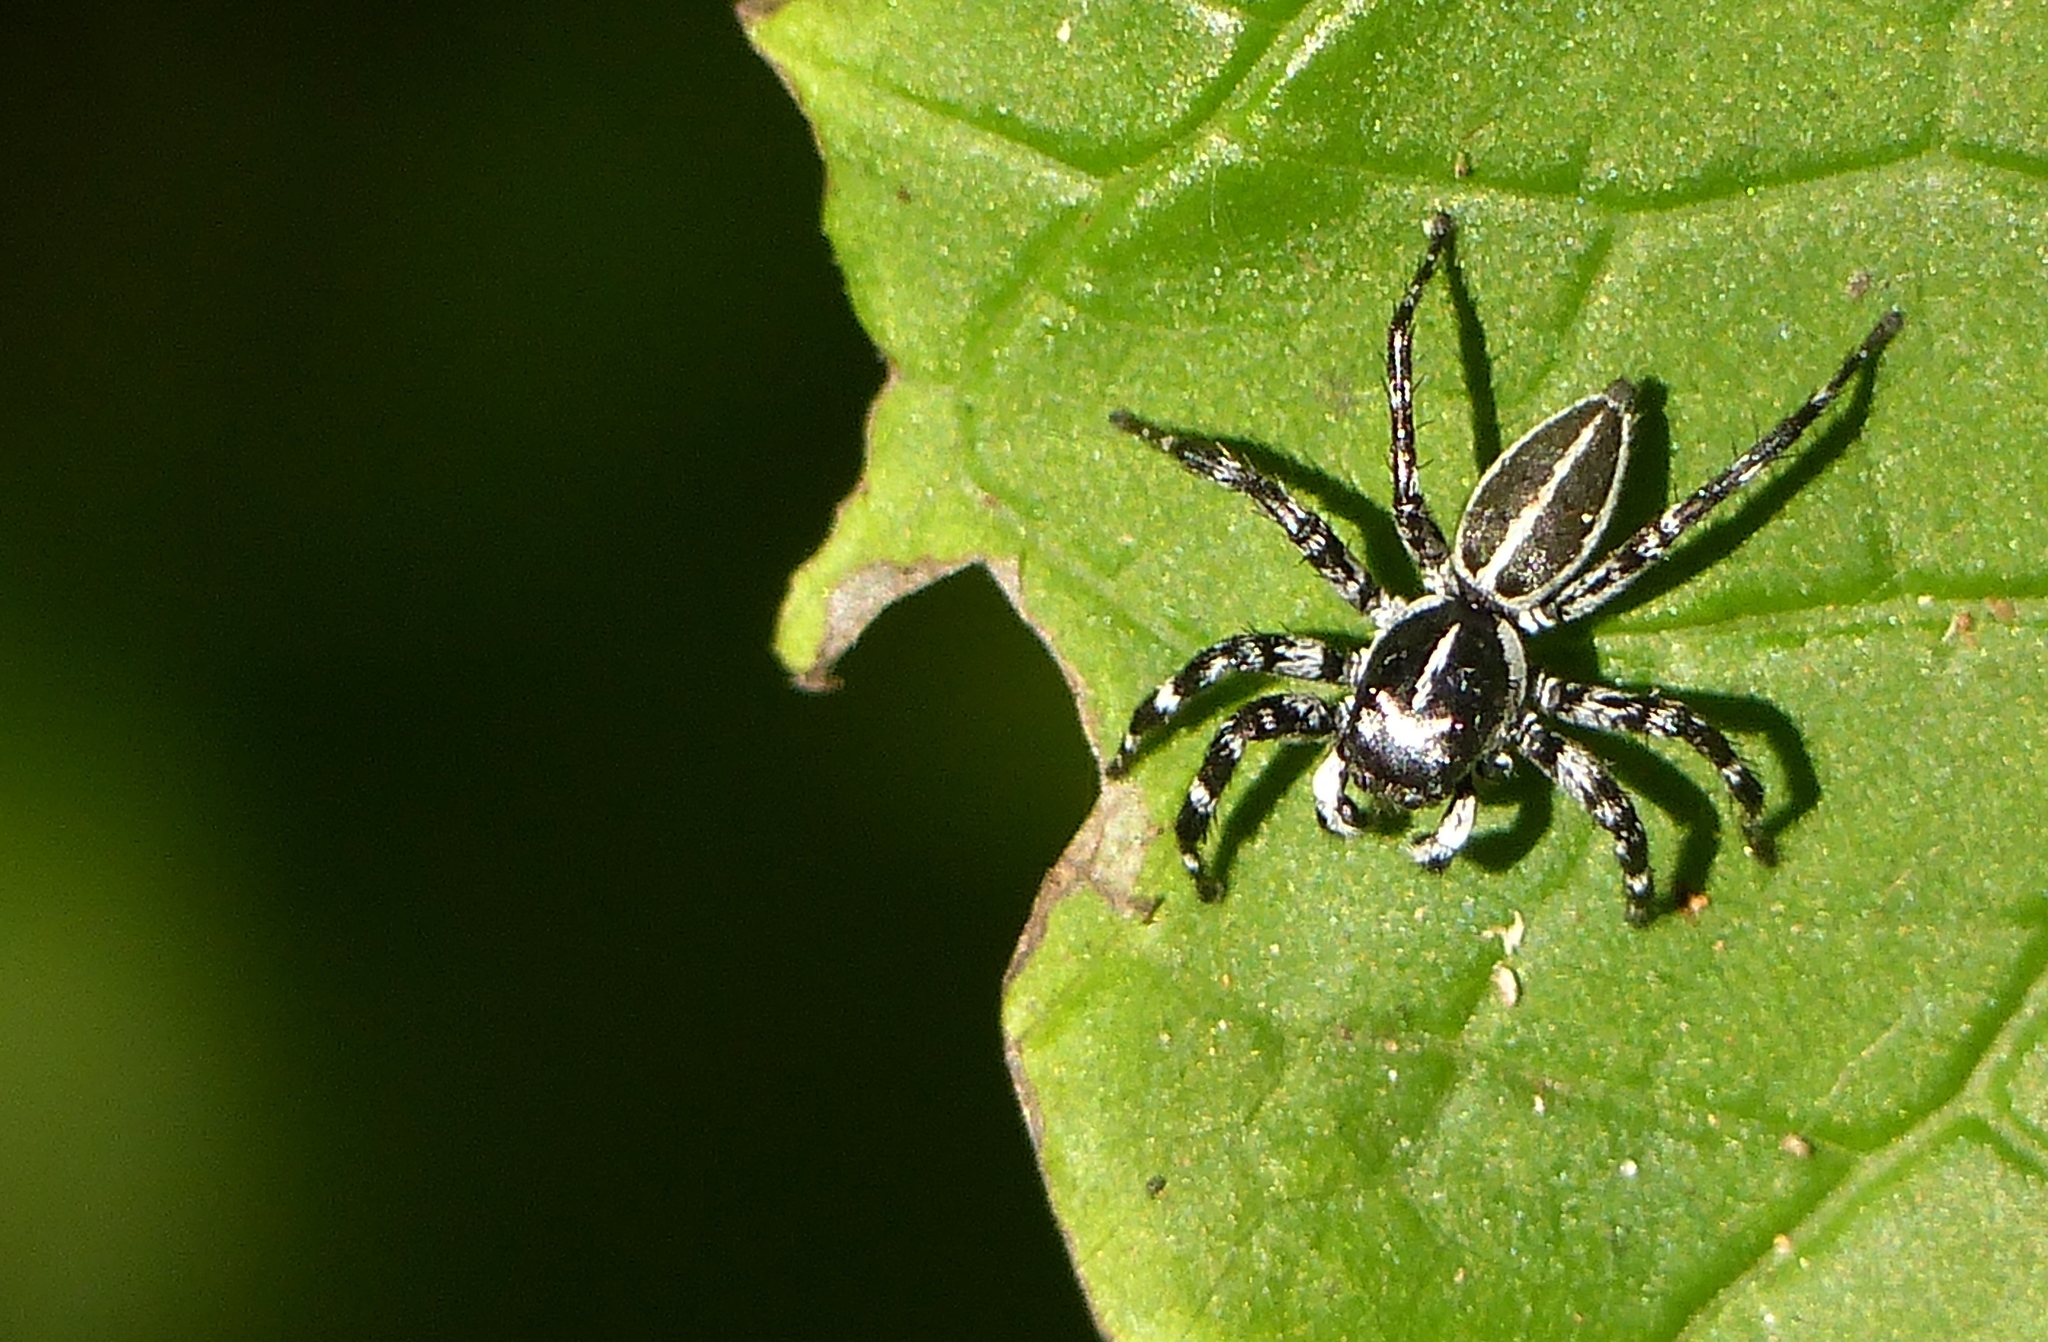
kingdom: Animalia
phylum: Arthropoda
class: Arachnida
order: Araneae
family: Salticidae
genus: Phiale
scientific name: Phiale tristis
